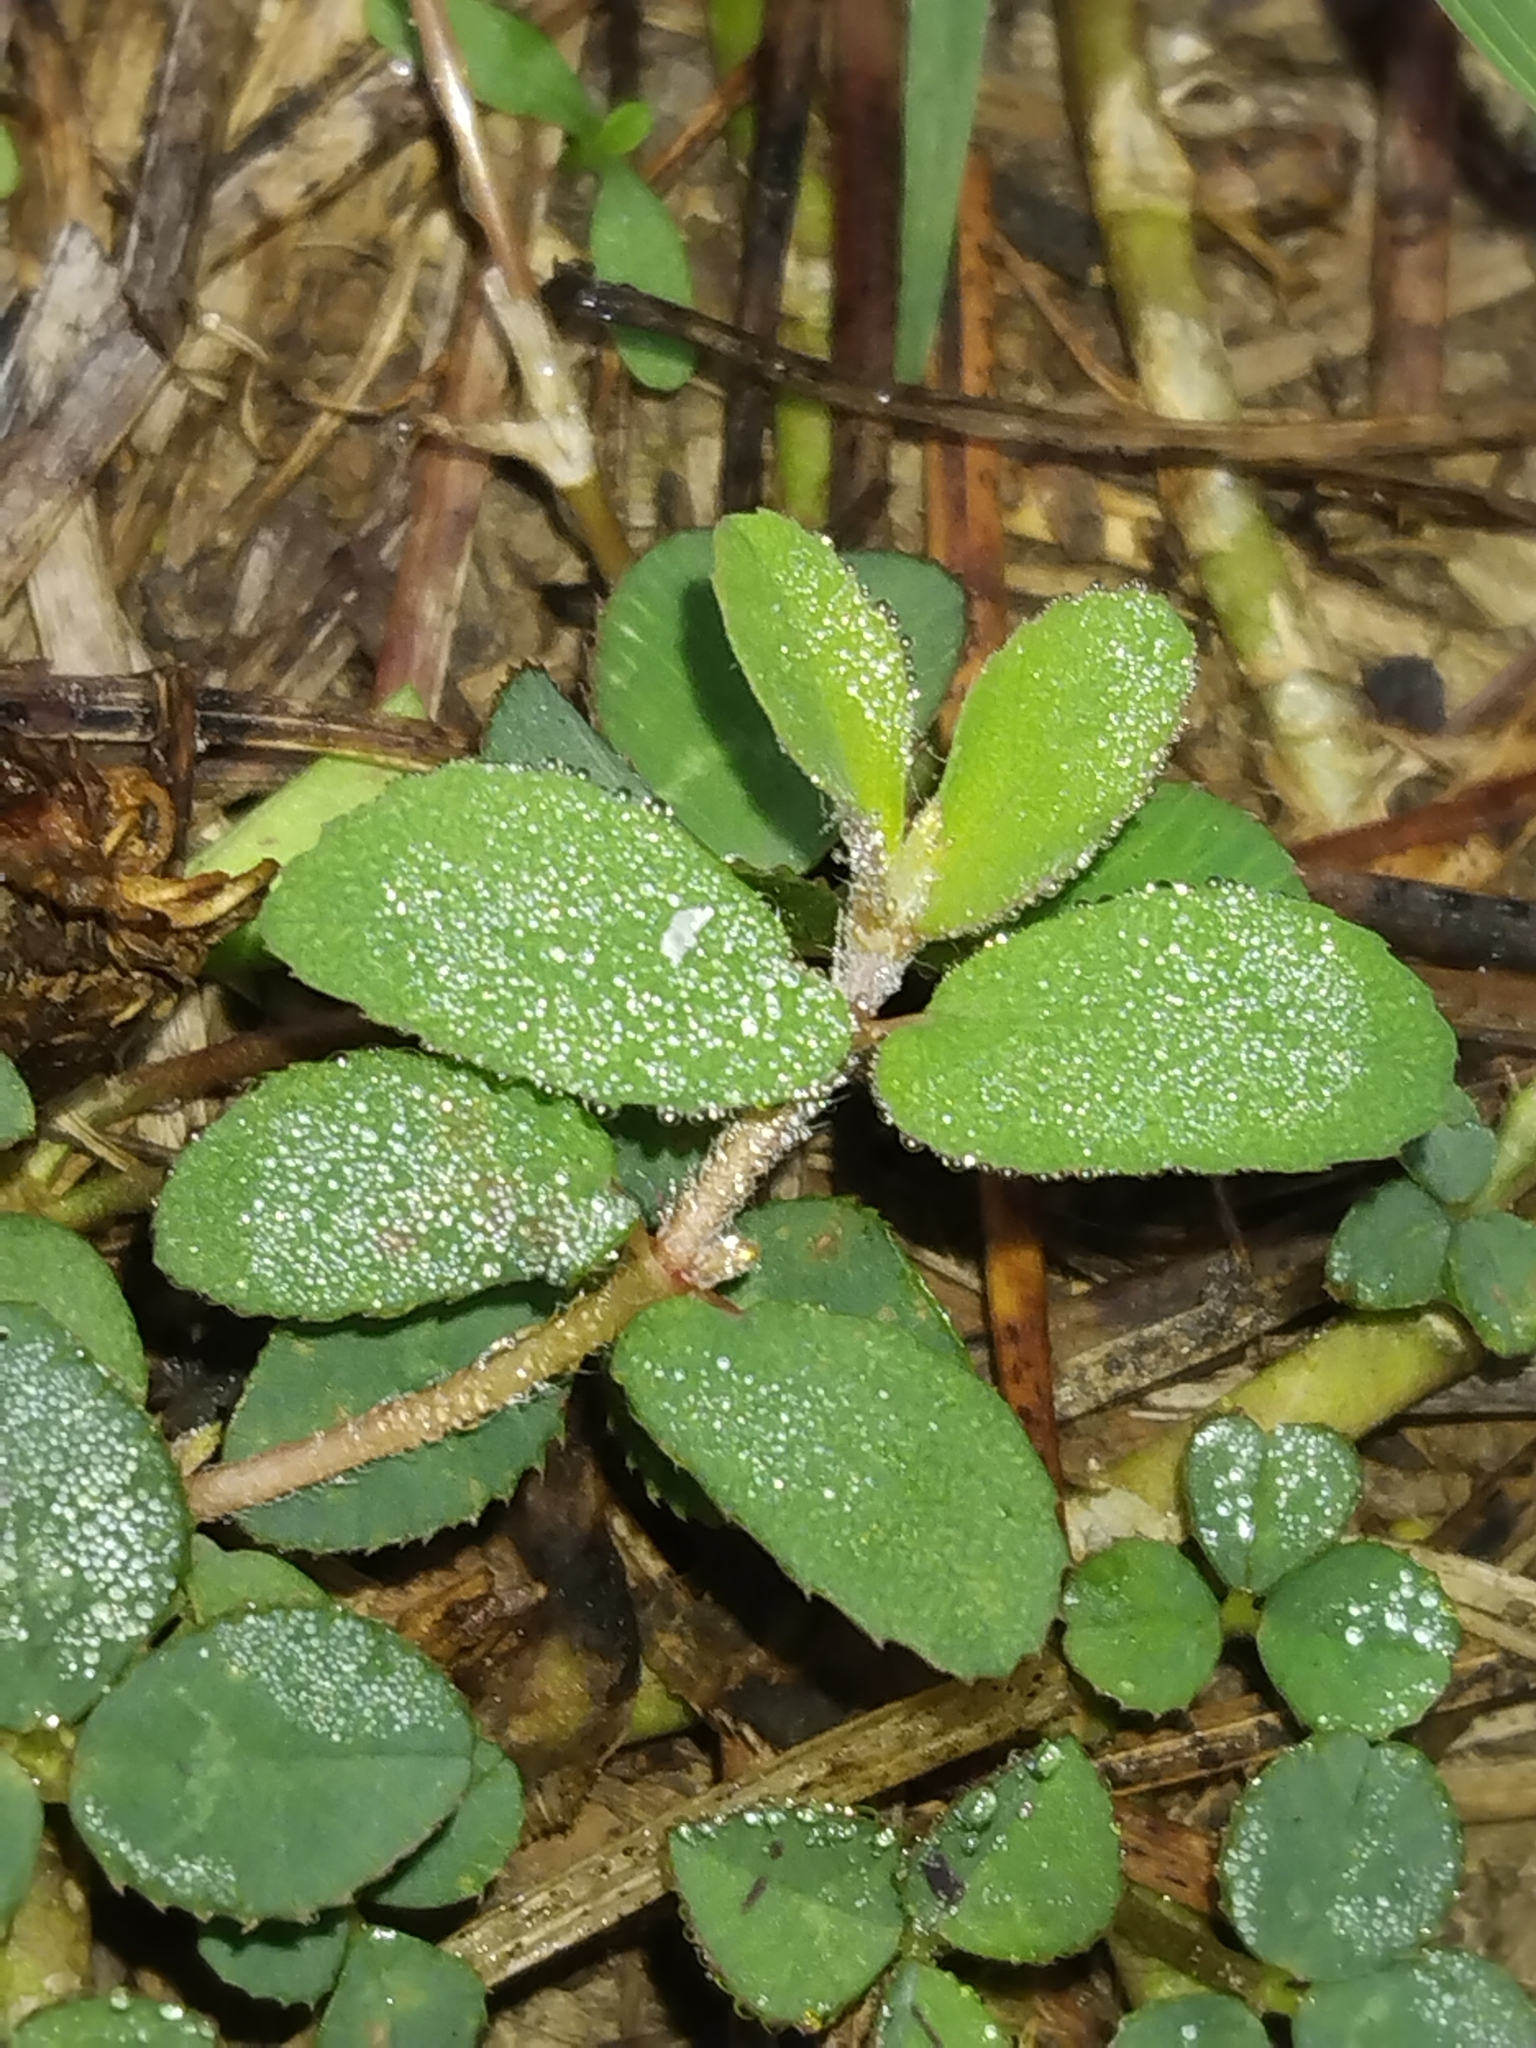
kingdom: Plantae
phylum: Tracheophyta
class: Magnoliopsida
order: Malpighiales
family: Euphorbiaceae
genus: Euphorbia
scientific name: Euphorbia maculata
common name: Spotted spurge
